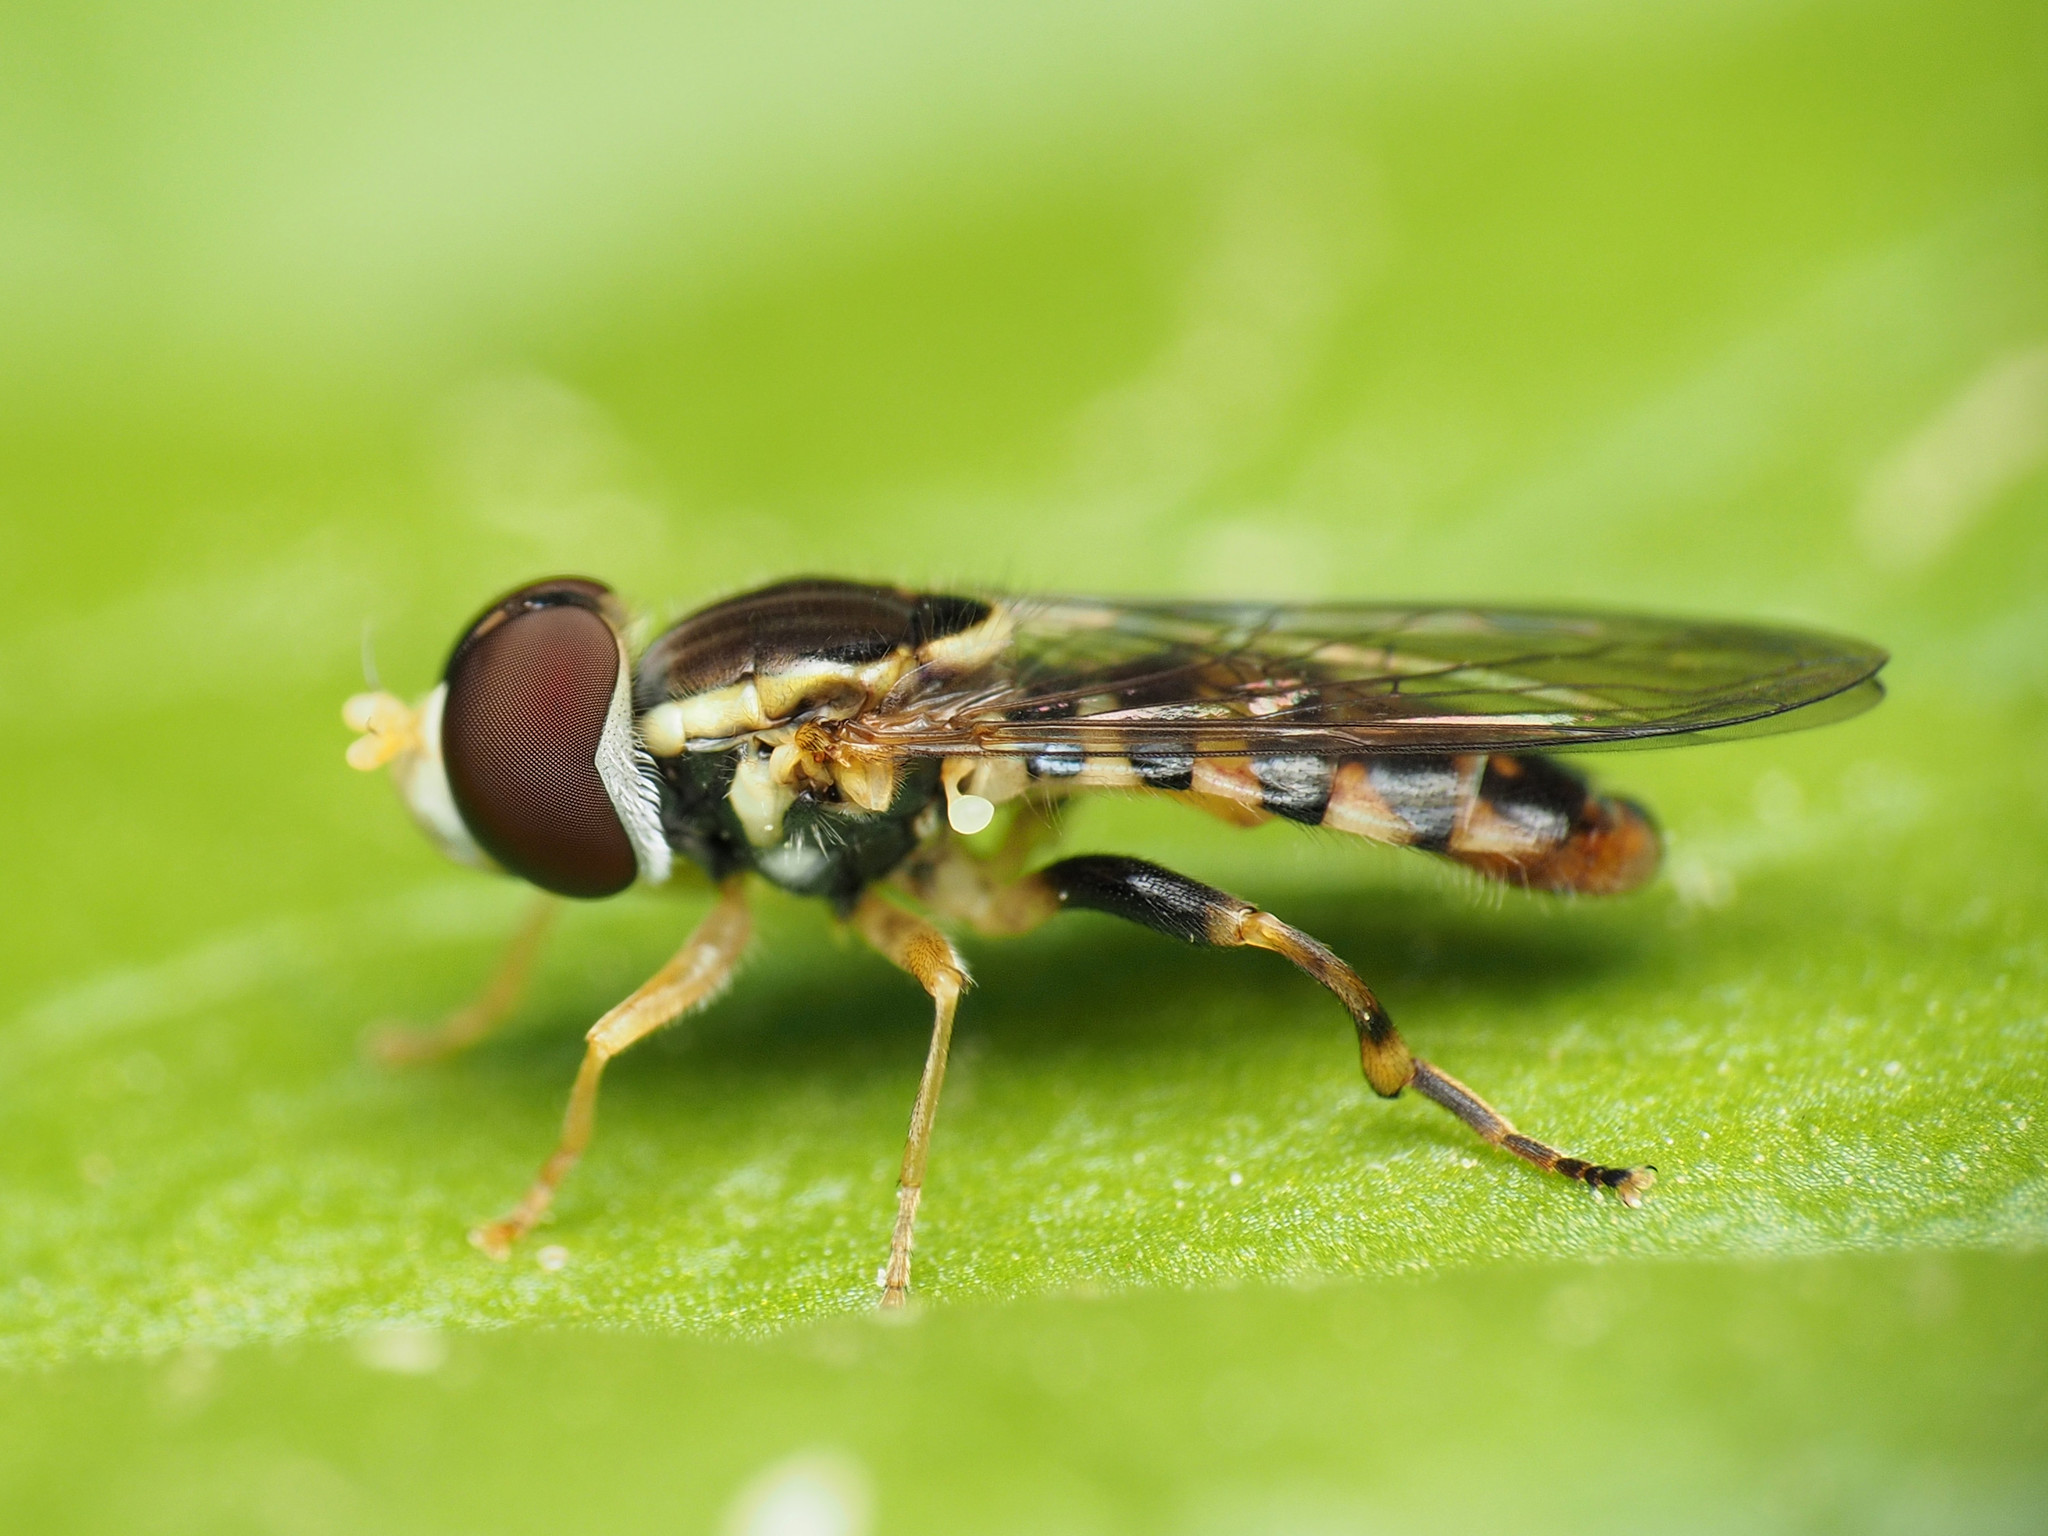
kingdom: Animalia
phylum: Arthropoda
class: Insecta
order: Diptera
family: Syrphidae
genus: Toxomerus
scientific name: Toxomerus geminatus
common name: Eastern calligrapher
